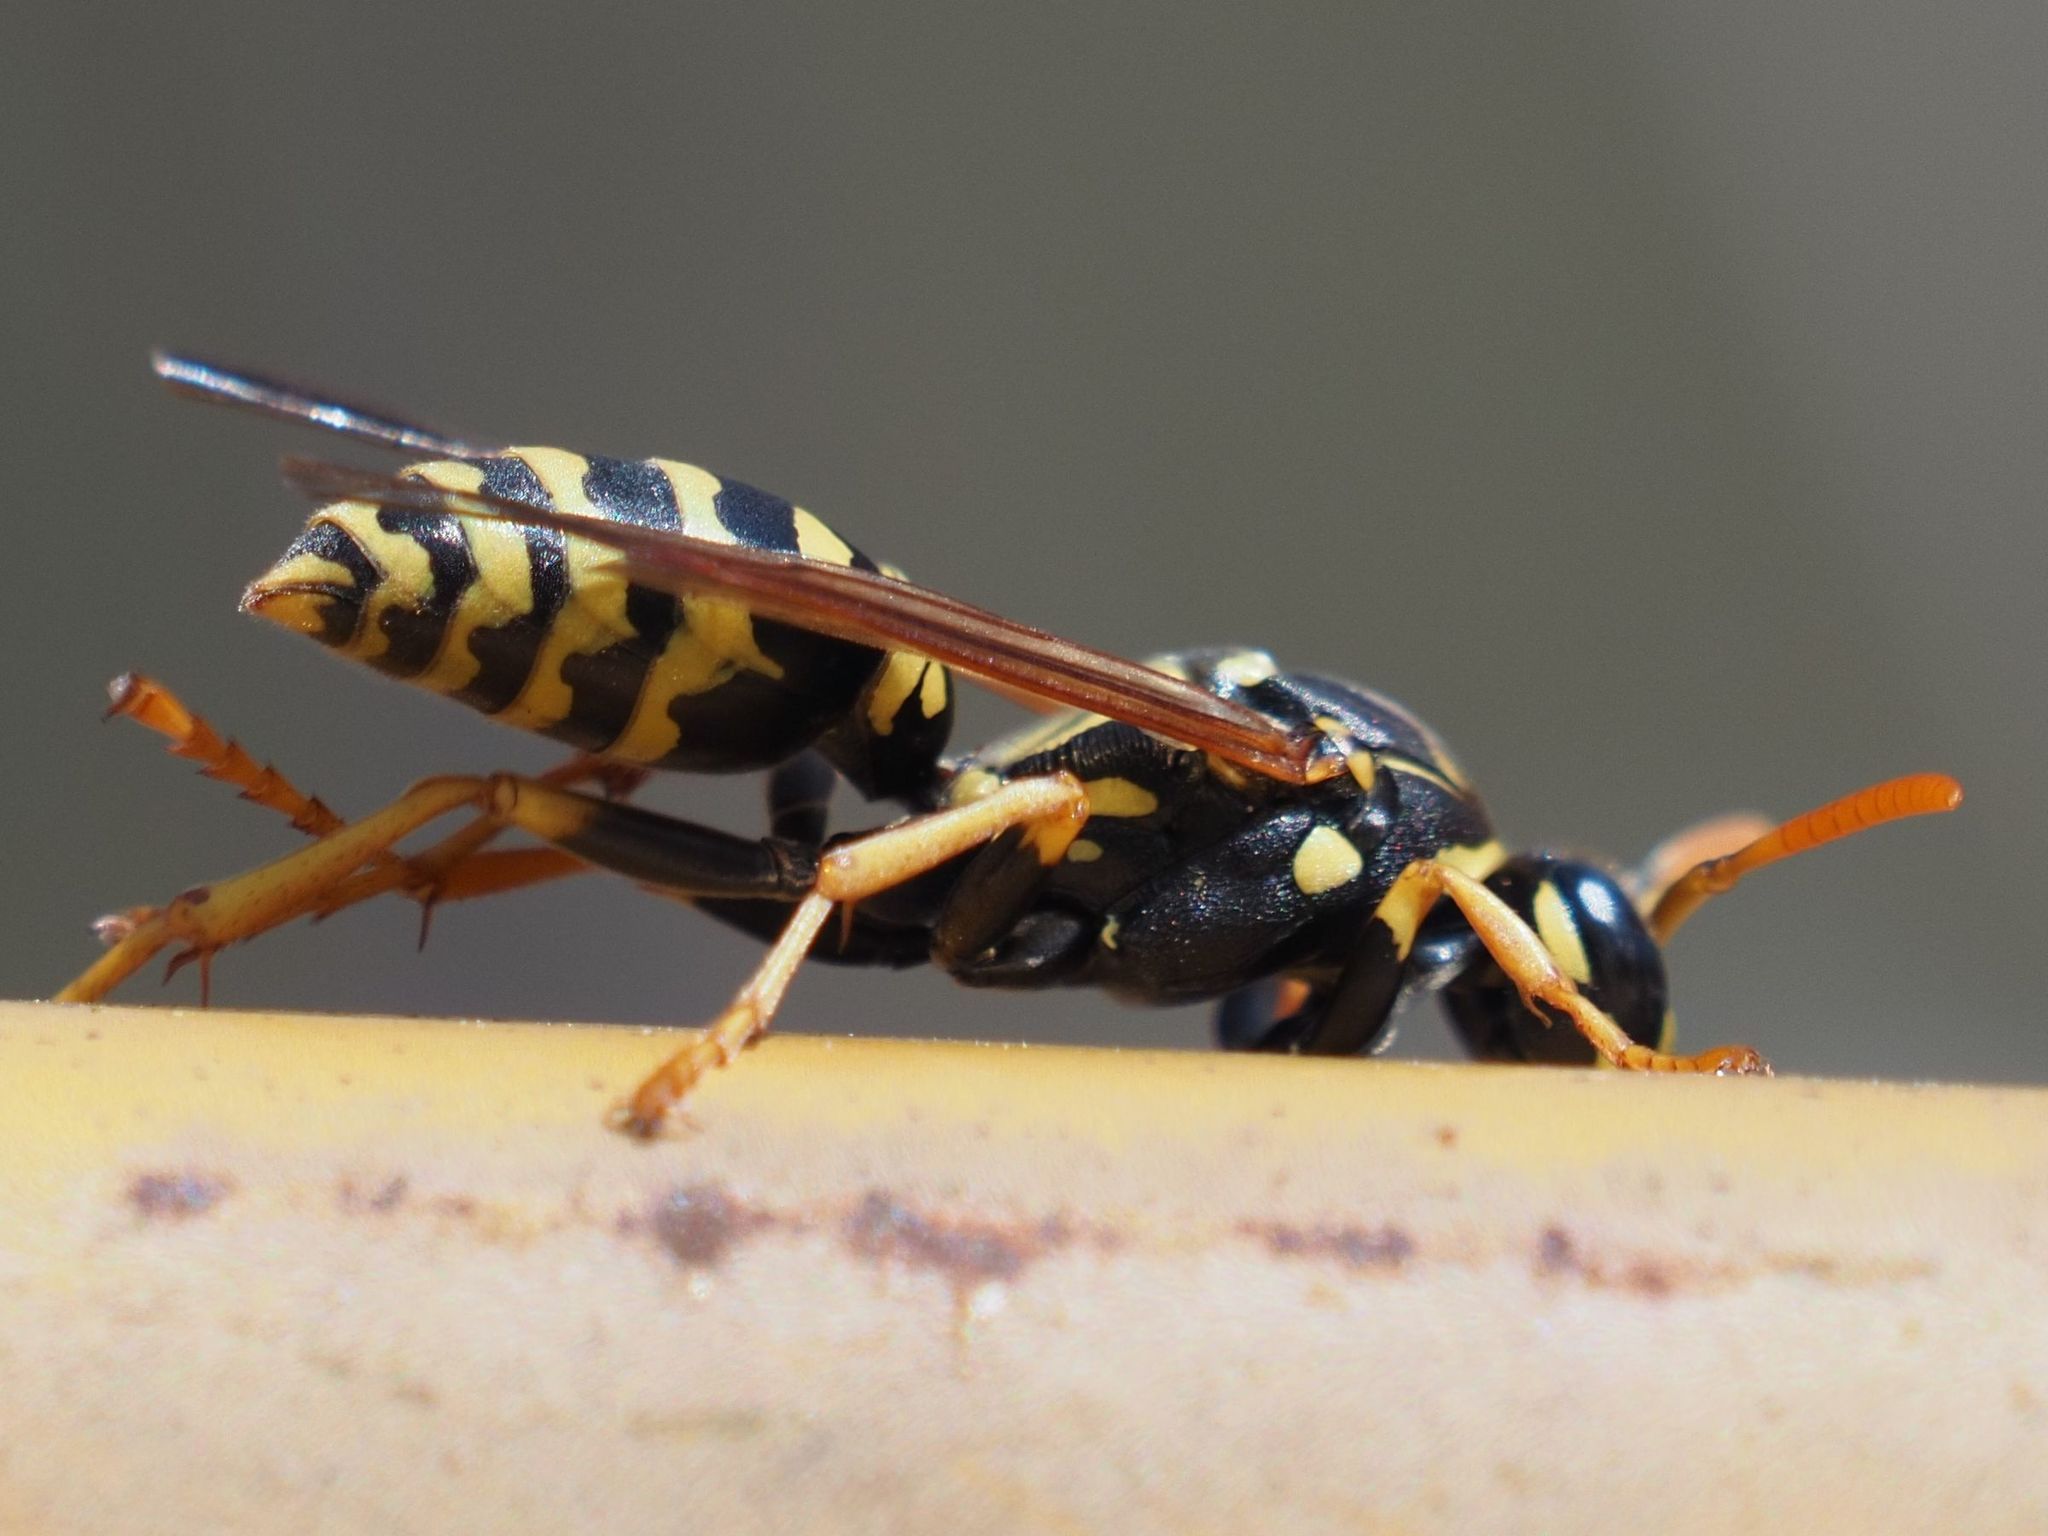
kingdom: Animalia
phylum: Arthropoda
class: Insecta
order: Hymenoptera
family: Eumenidae
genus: Polistes
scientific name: Polistes dominula
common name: Paper wasp
